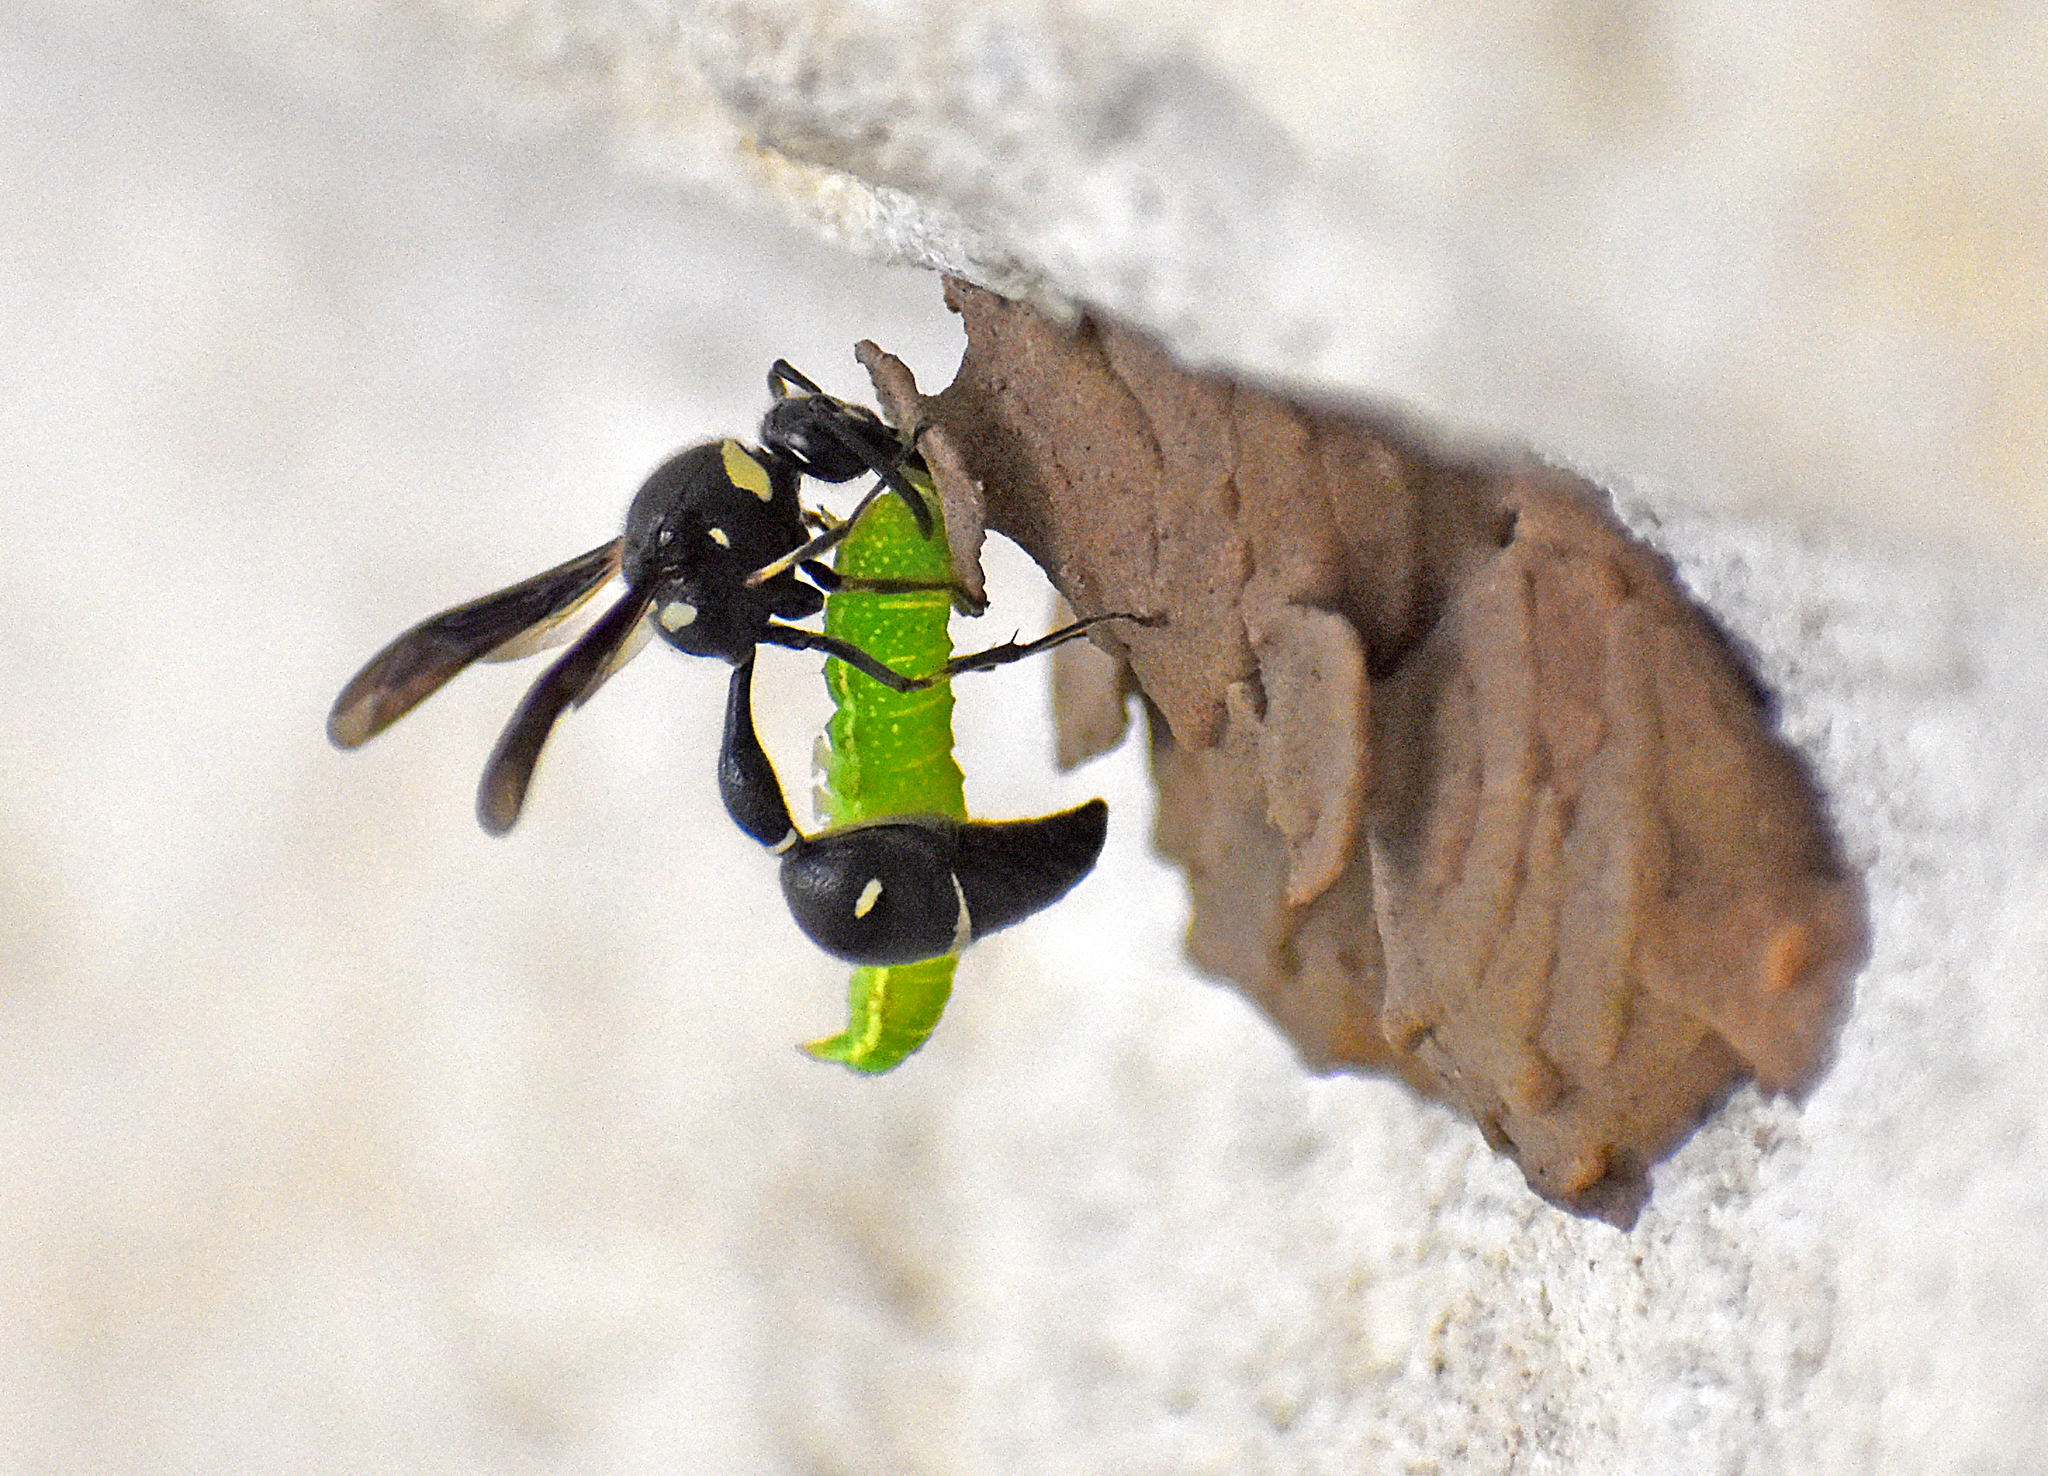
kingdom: Animalia
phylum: Arthropoda
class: Insecta
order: Hymenoptera
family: Vespidae
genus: Eumenes
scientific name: Eumenes fraternus
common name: Fraternal potter wasp
